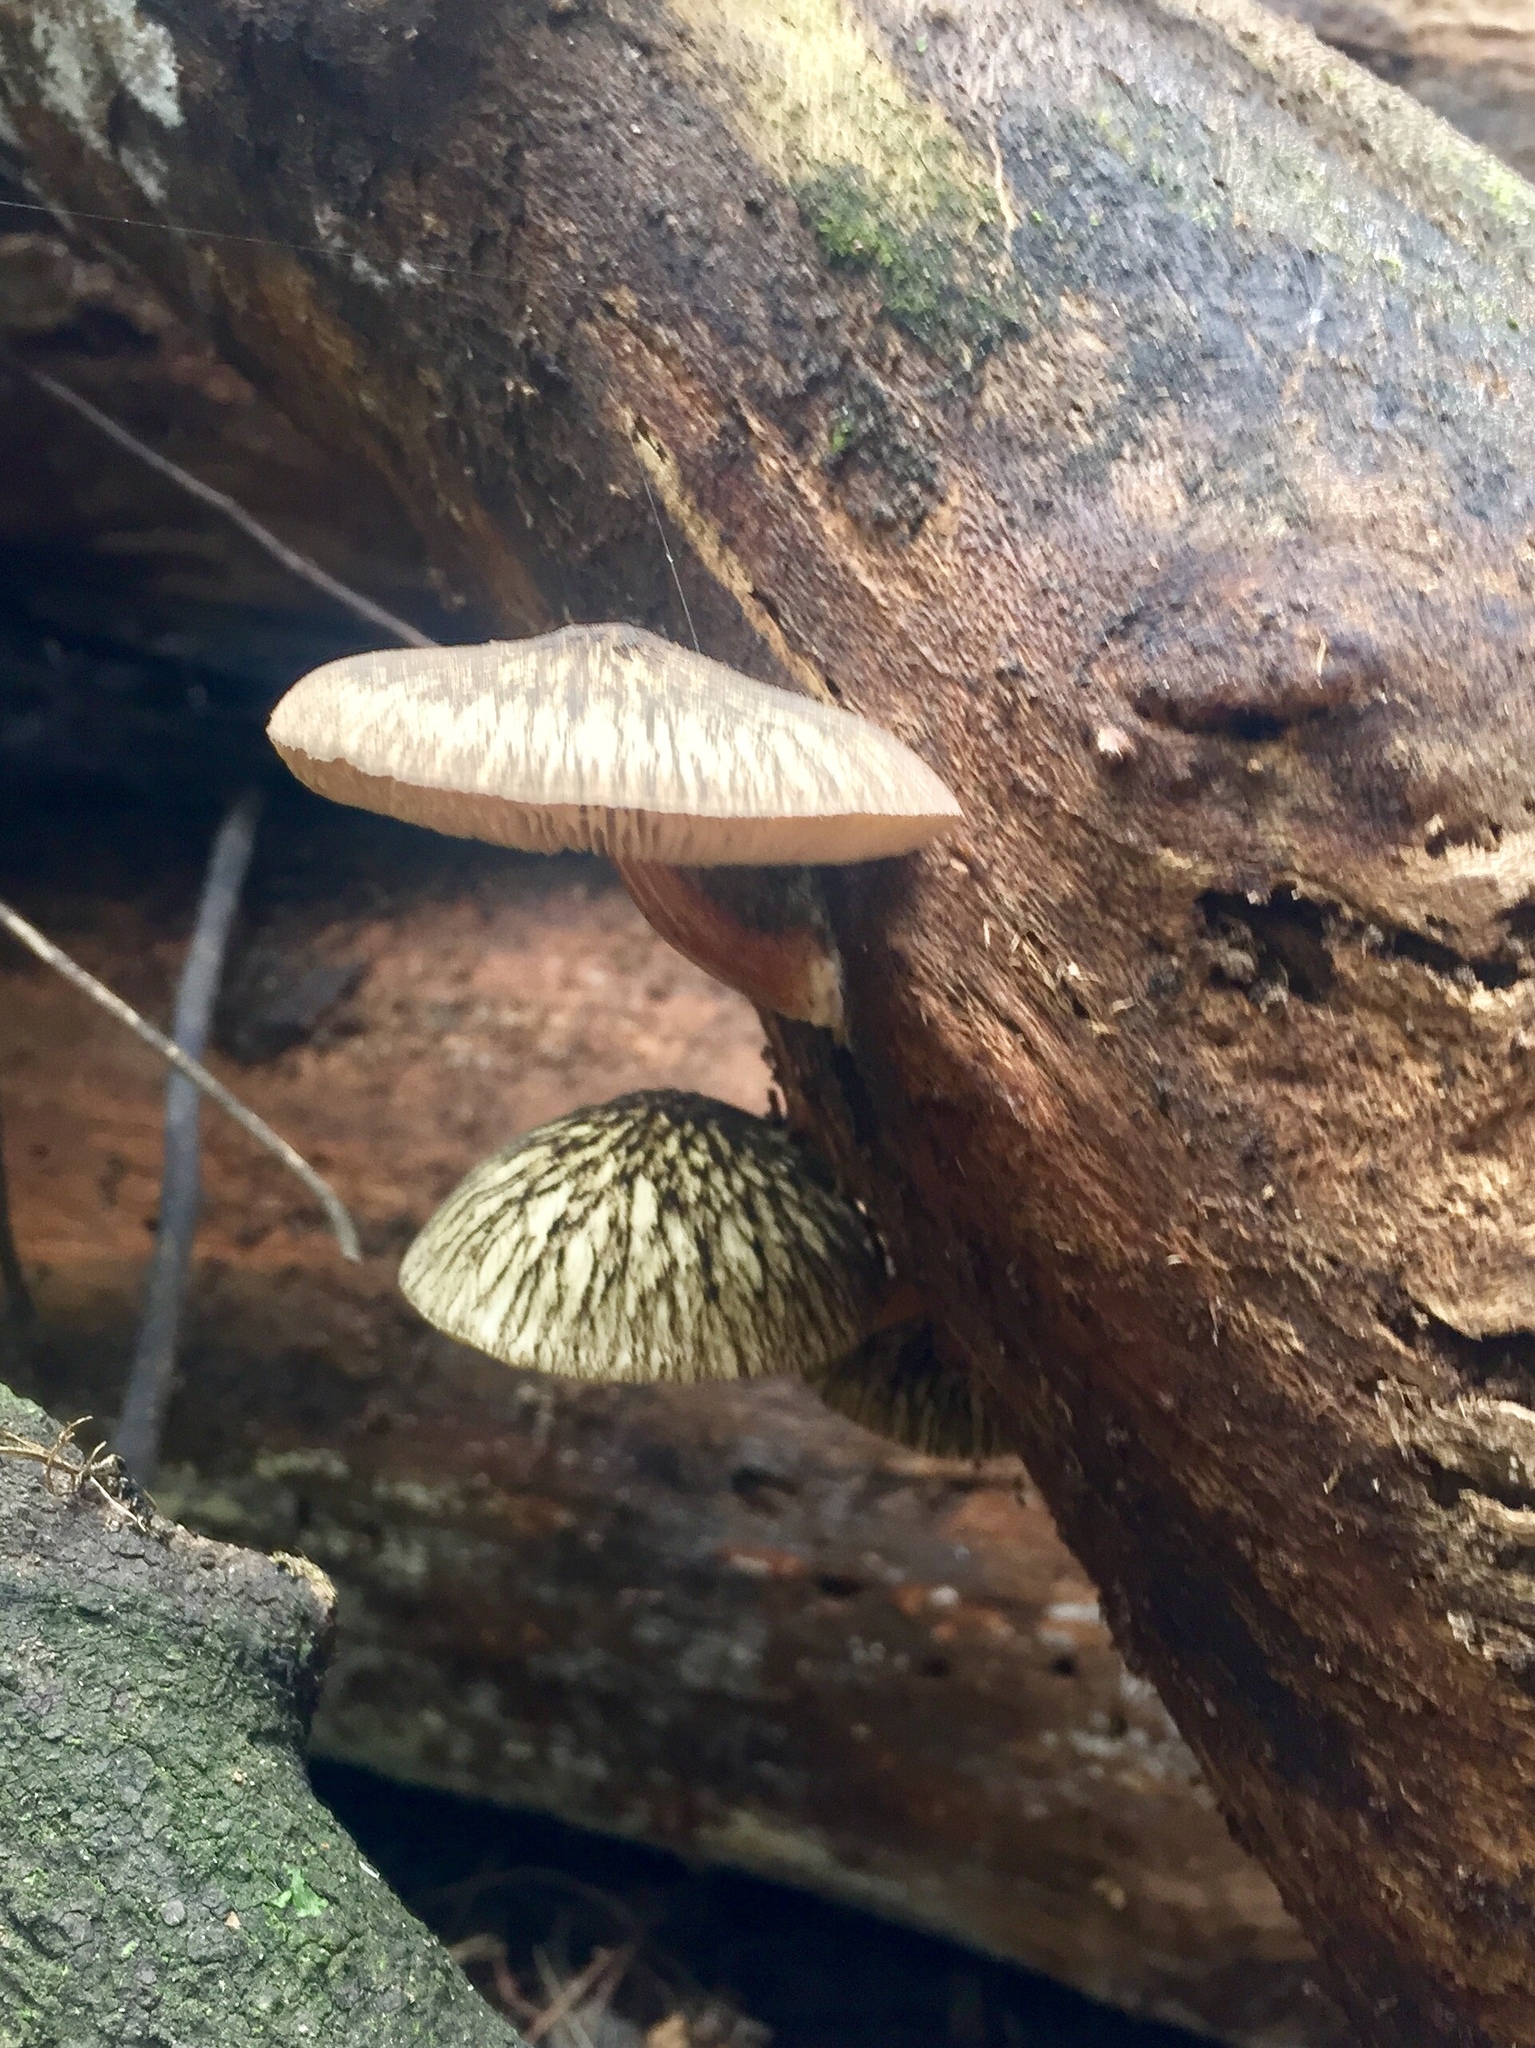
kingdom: Fungi
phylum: Basidiomycota
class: Agaricomycetes
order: Agaricales
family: Pluteaceae
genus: Pluteus
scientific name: Pluteus readiarum
